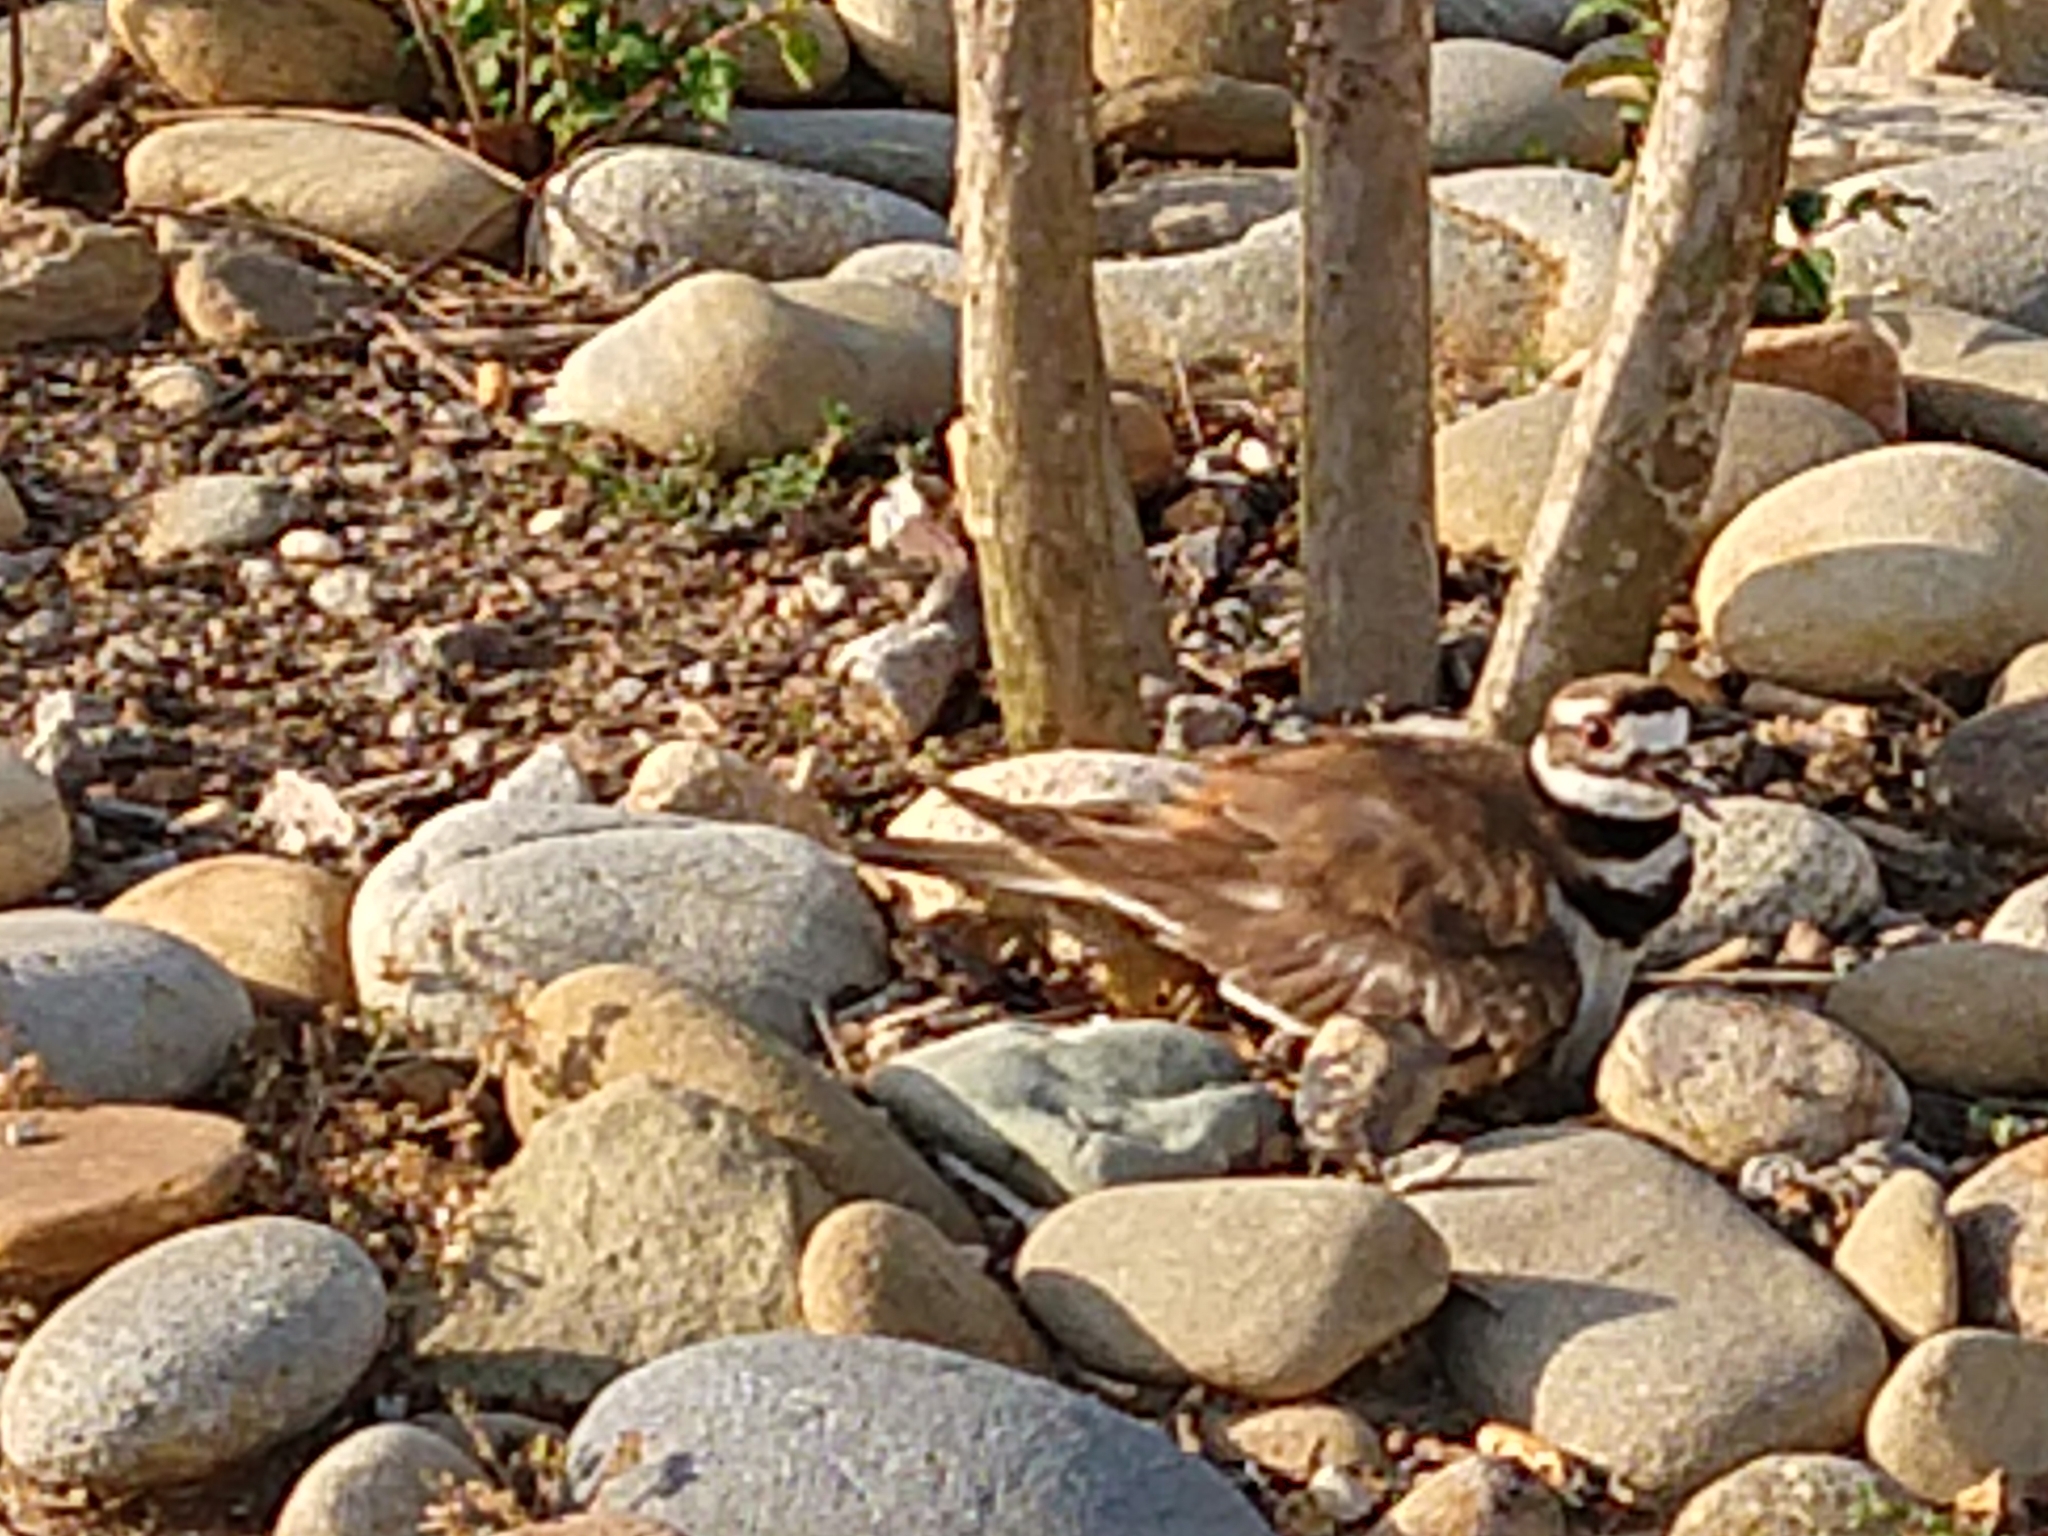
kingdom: Animalia
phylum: Chordata
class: Aves
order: Charadriiformes
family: Charadriidae
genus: Charadrius
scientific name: Charadrius vociferus
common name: Killdeer
